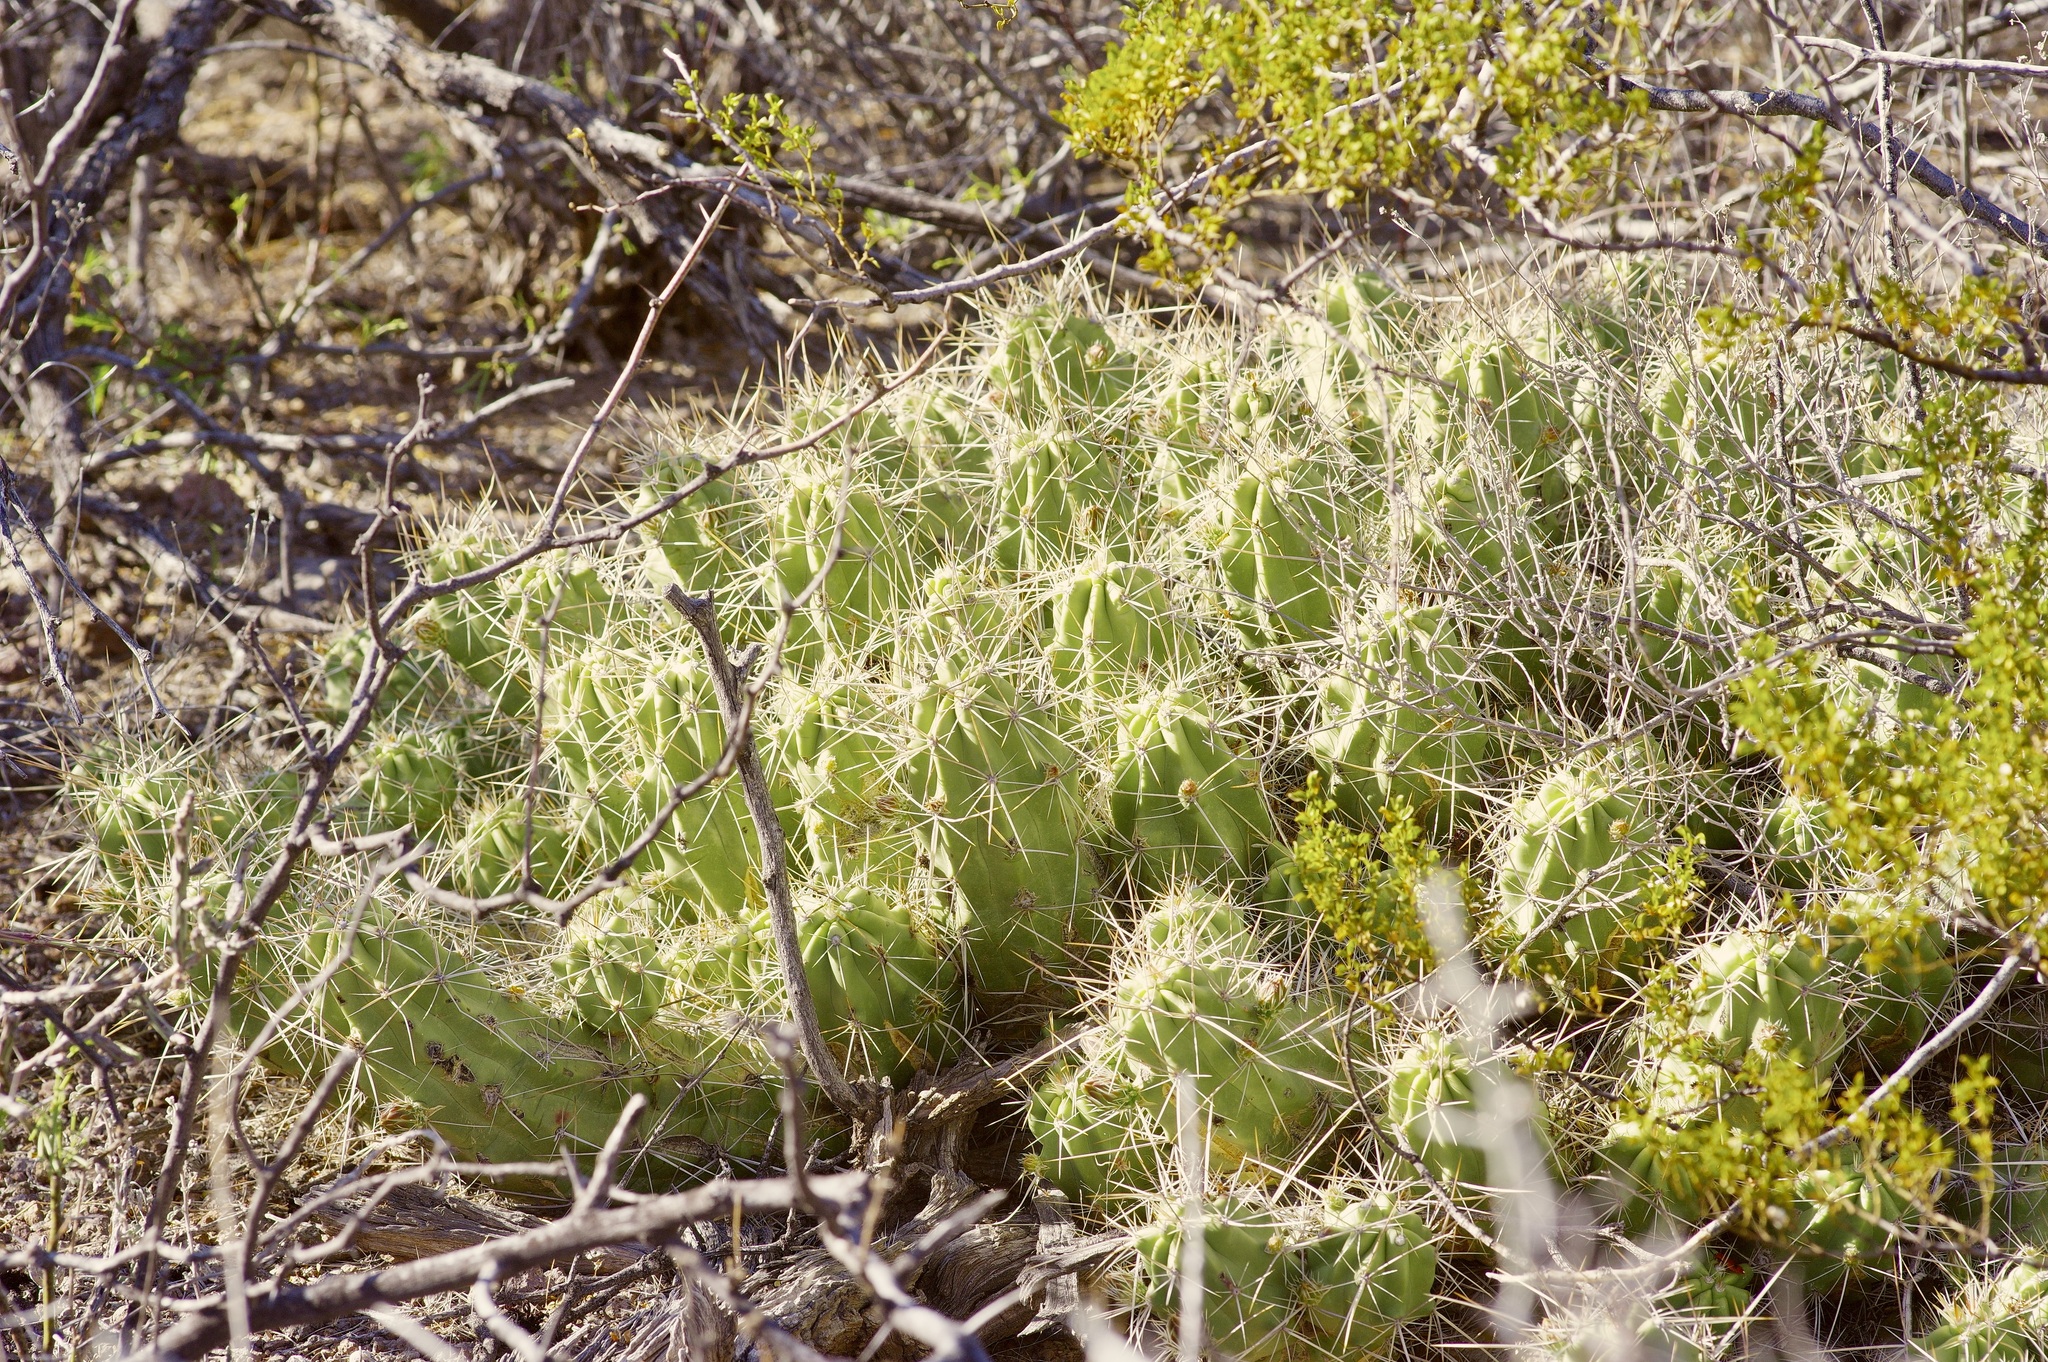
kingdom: Plantae
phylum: Tracheophyta
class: Magnoliopsida
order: Caryophyllales
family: Cactaceae
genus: Echinocereus
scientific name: Echinocereus enneacanthus
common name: Pitaya
